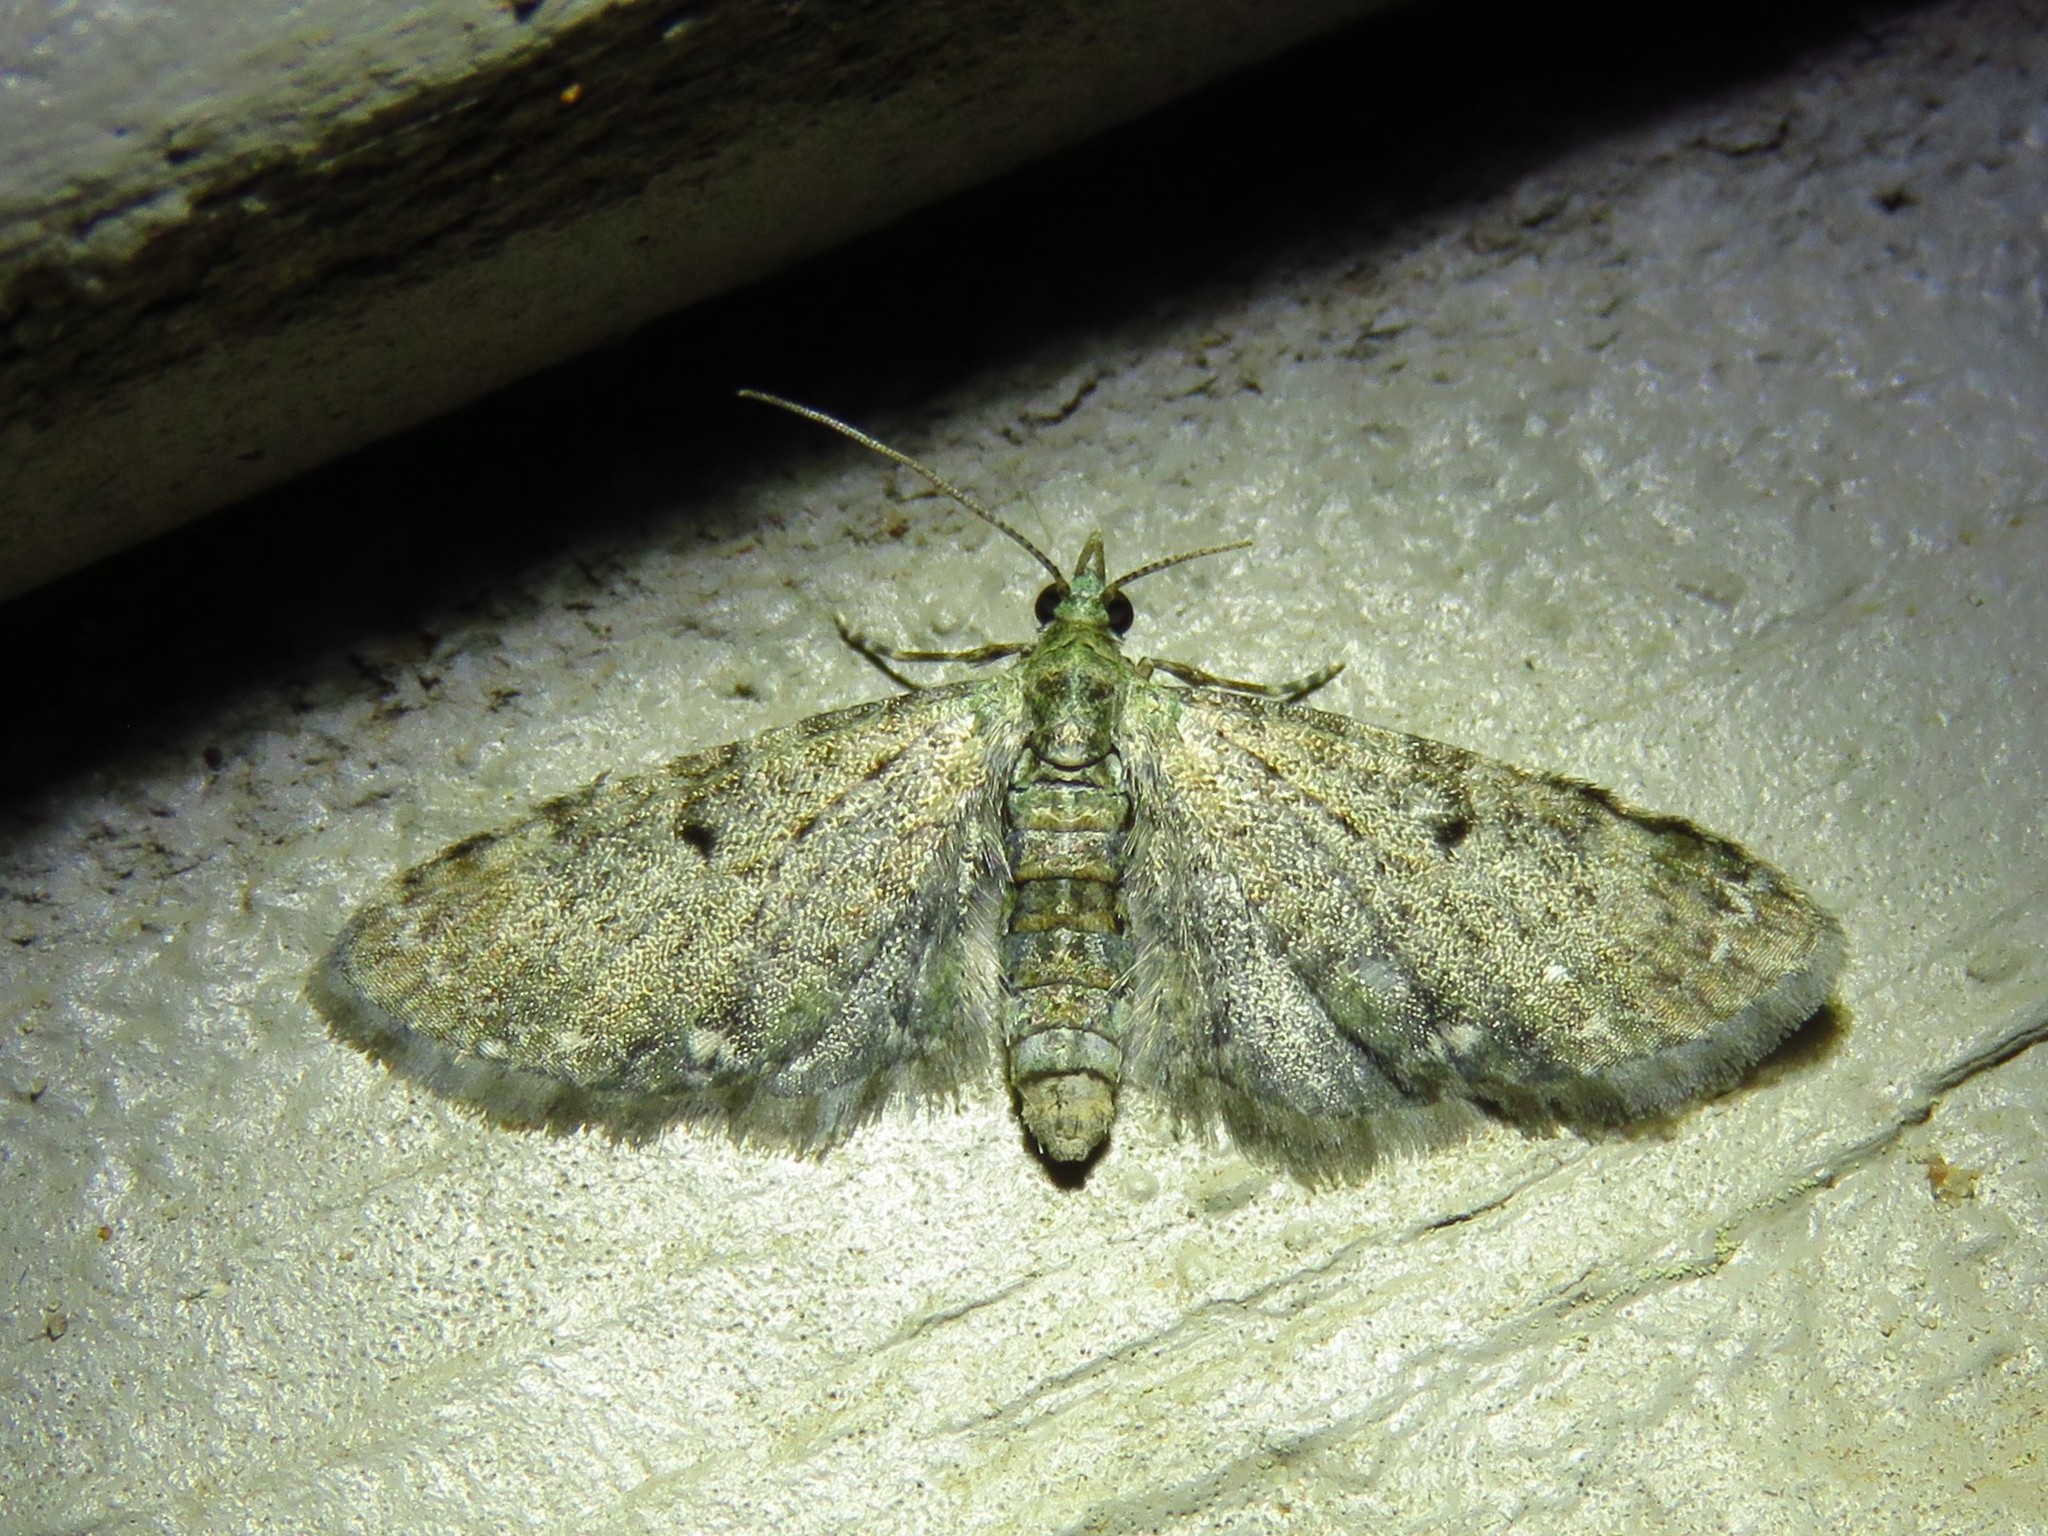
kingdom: Animalia
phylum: Arthropoda
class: Insecta
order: Lepidoptera
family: Geometridae
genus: Eupithecia
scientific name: Eupithecia miserulata
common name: Common eupithecia
